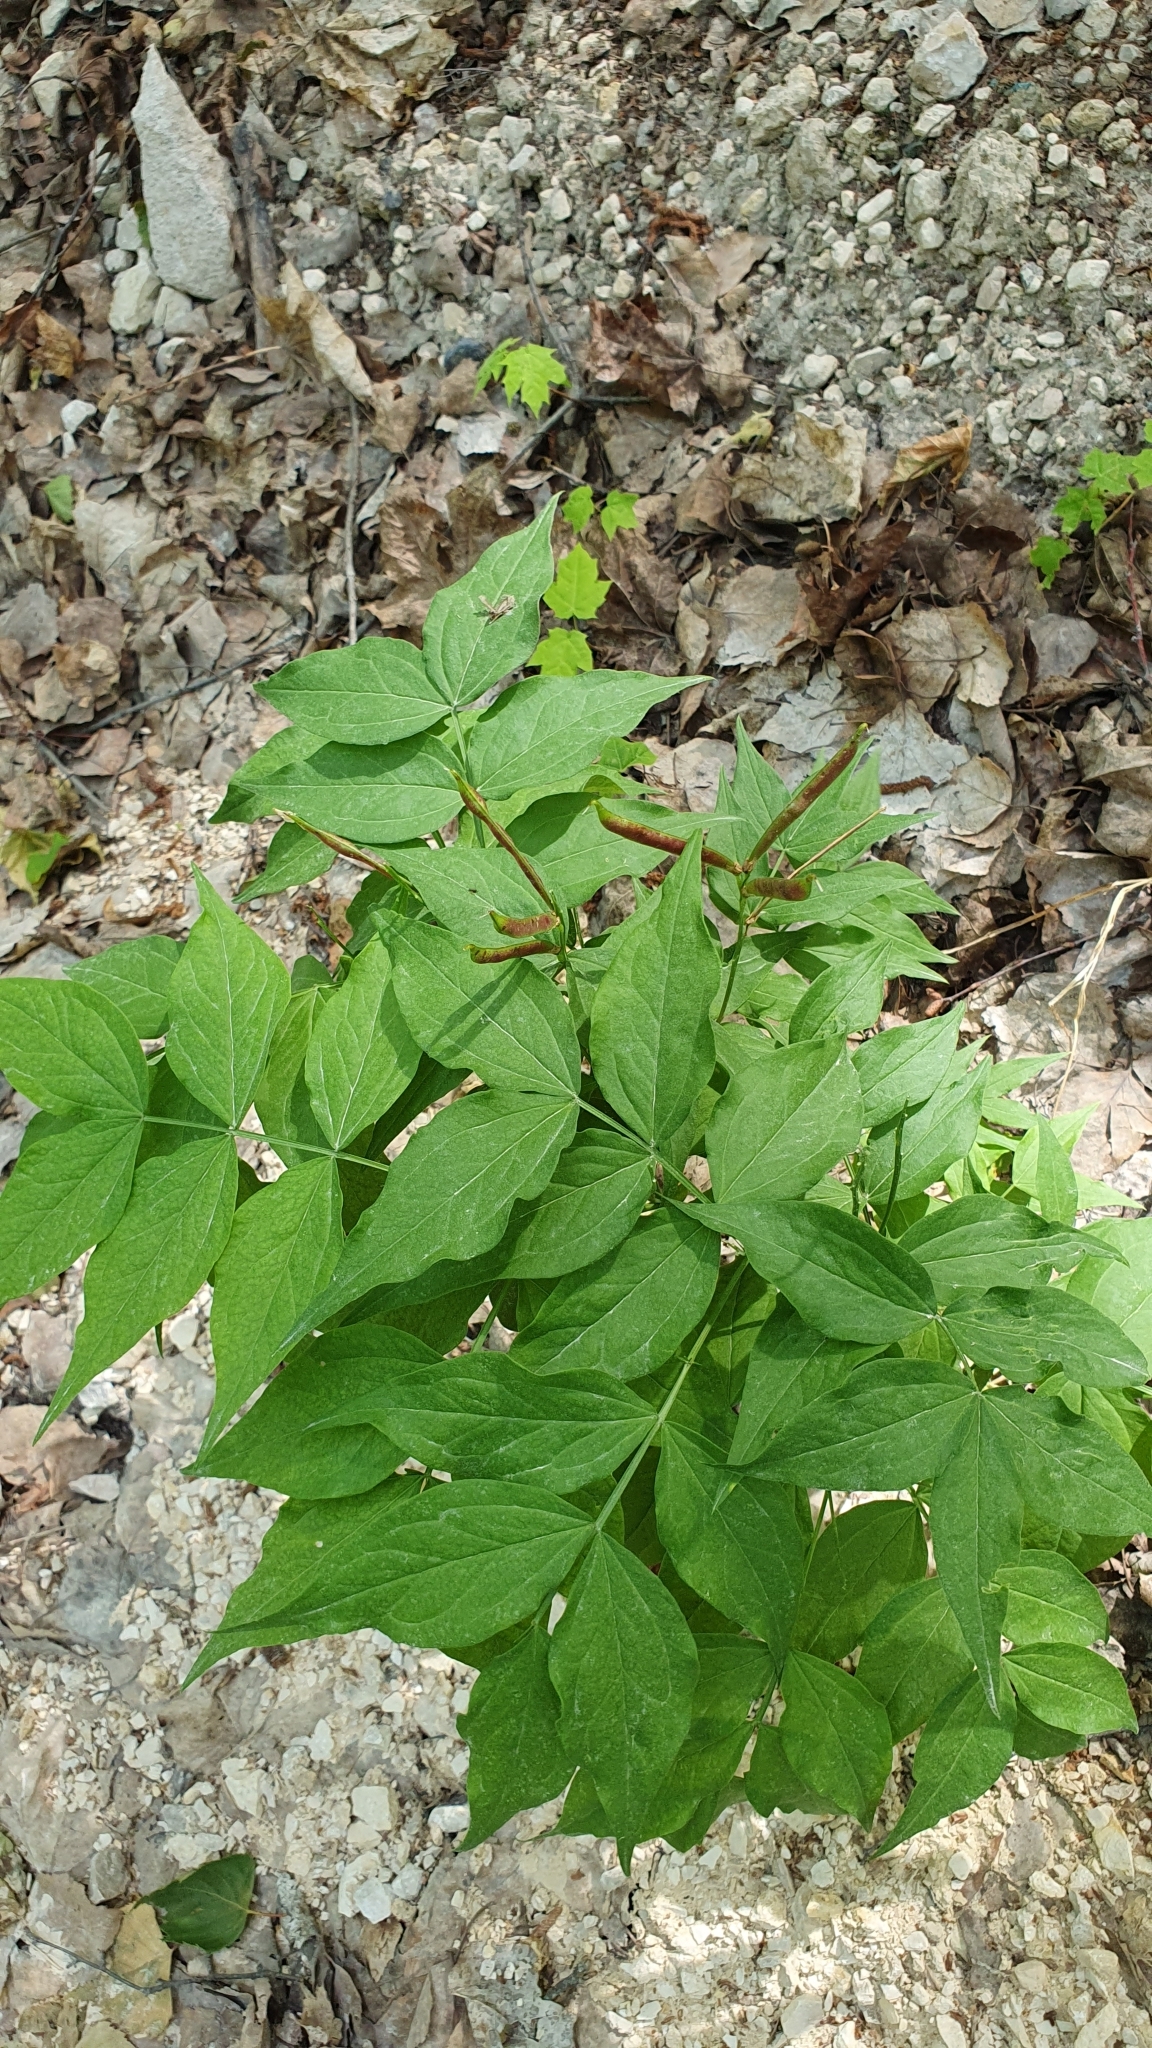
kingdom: Plantae
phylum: Tracheophyta
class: Magnoliopsida
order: Fabales
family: Fabaceae
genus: Lathyrus
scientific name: Lathyrus vernus
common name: Spring pea
